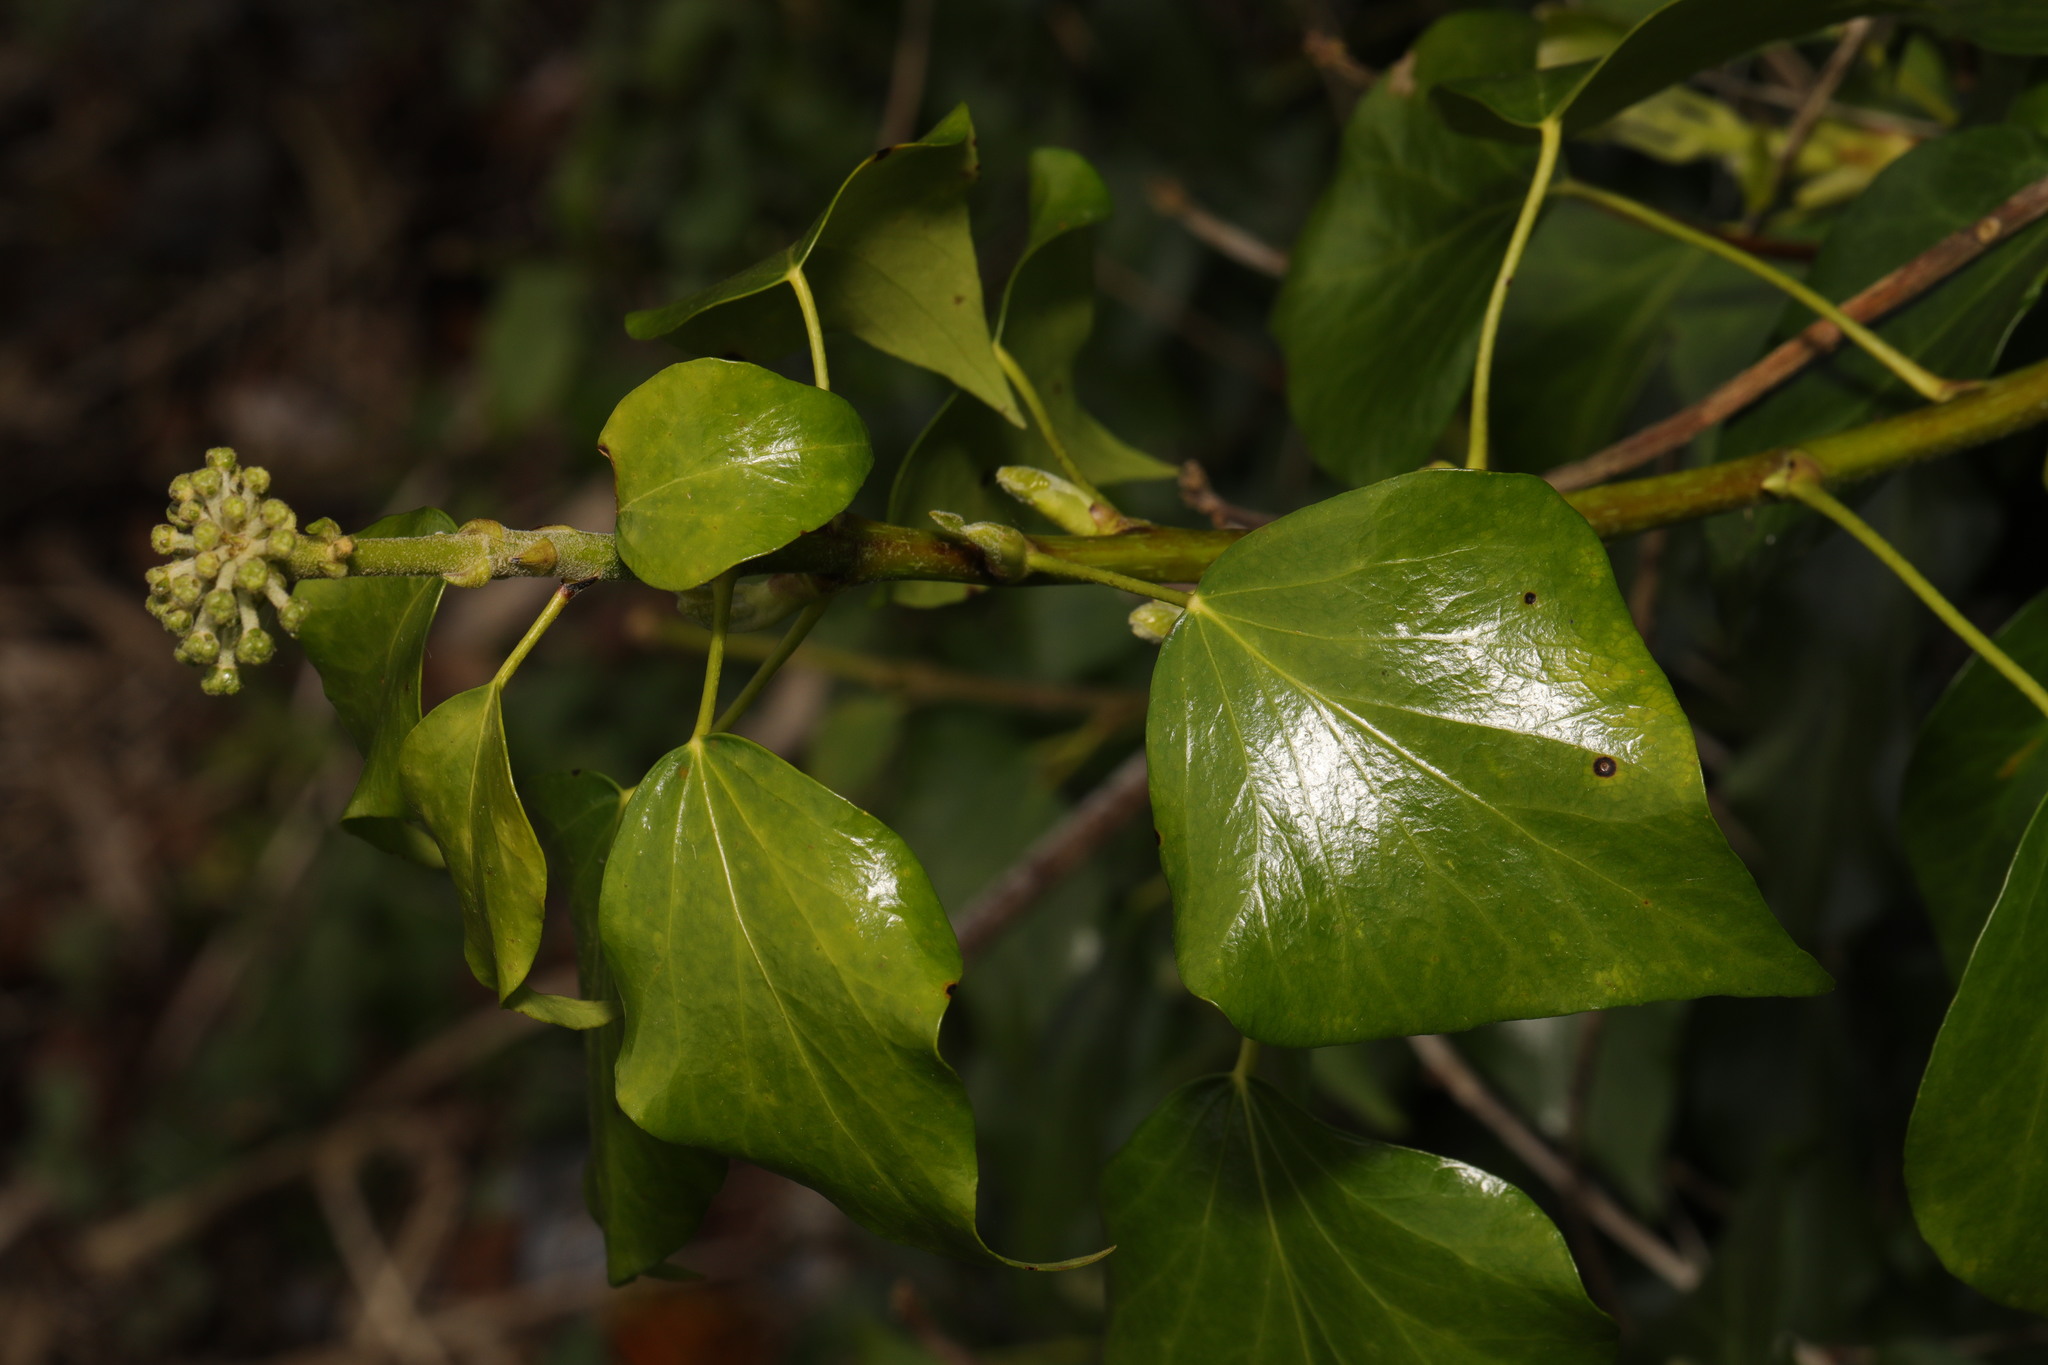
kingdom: Plantae
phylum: Tracheophyta
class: Magnoliopsida
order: Apiales
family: Araliaceae
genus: Hedera
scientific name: Hedera helix
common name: Ivy
